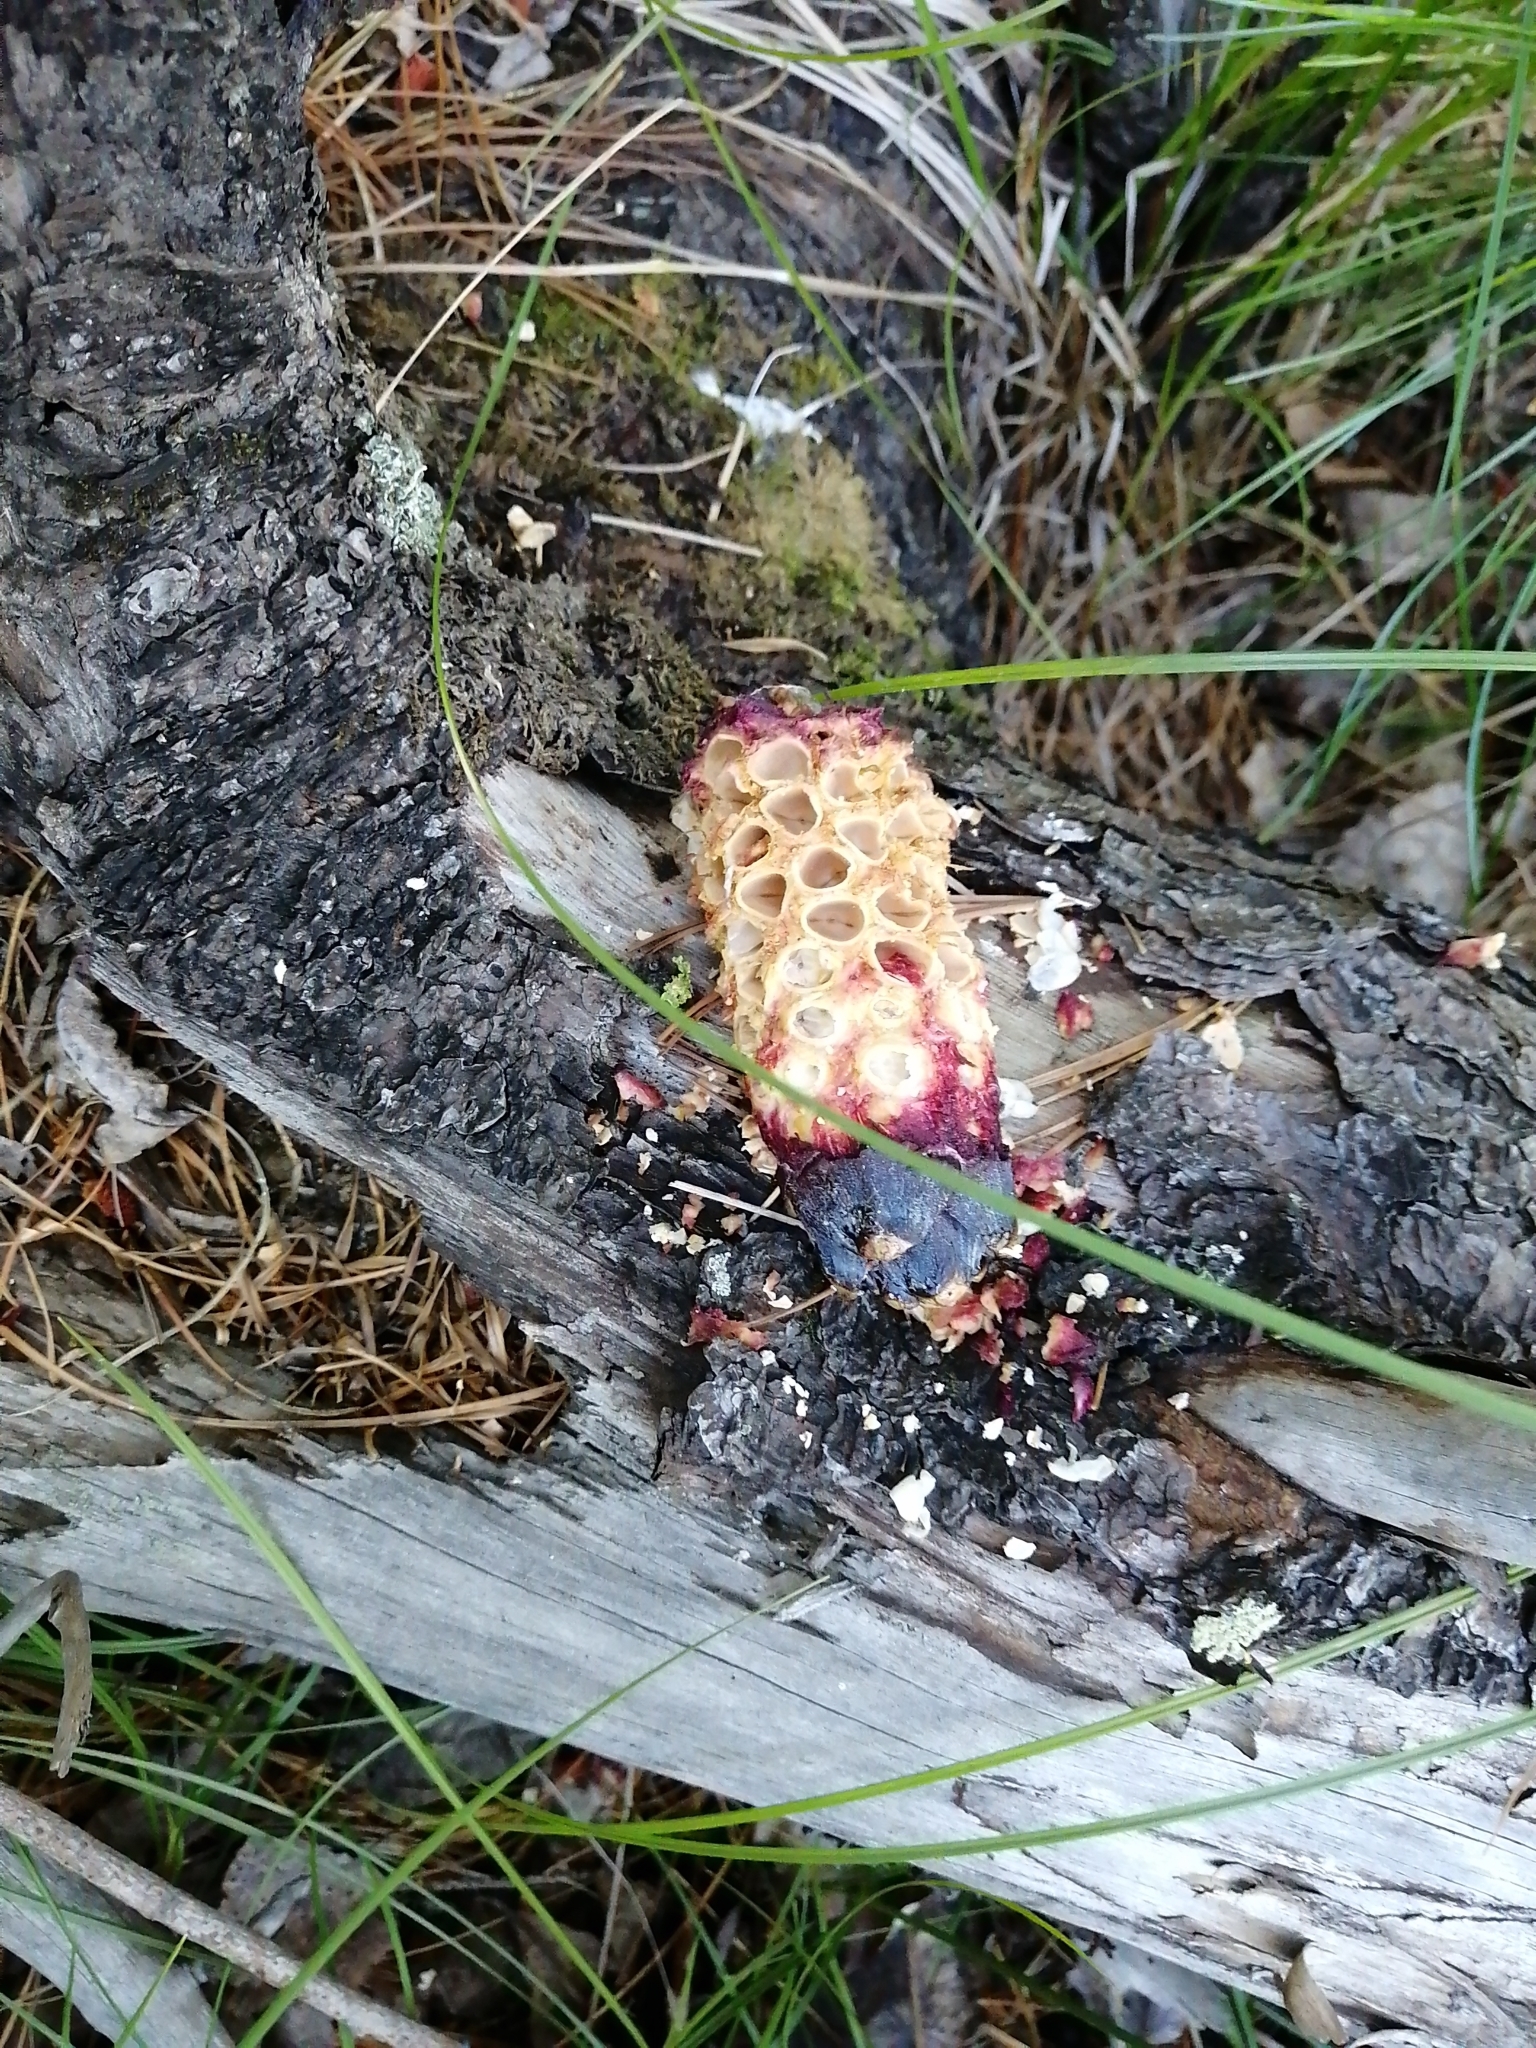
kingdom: Animalia
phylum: Chordata
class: Mammalia
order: Rodentia
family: Sciuridae
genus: Sciurus
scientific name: Sciurus vulgaris
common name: Eurasian red squirrel
